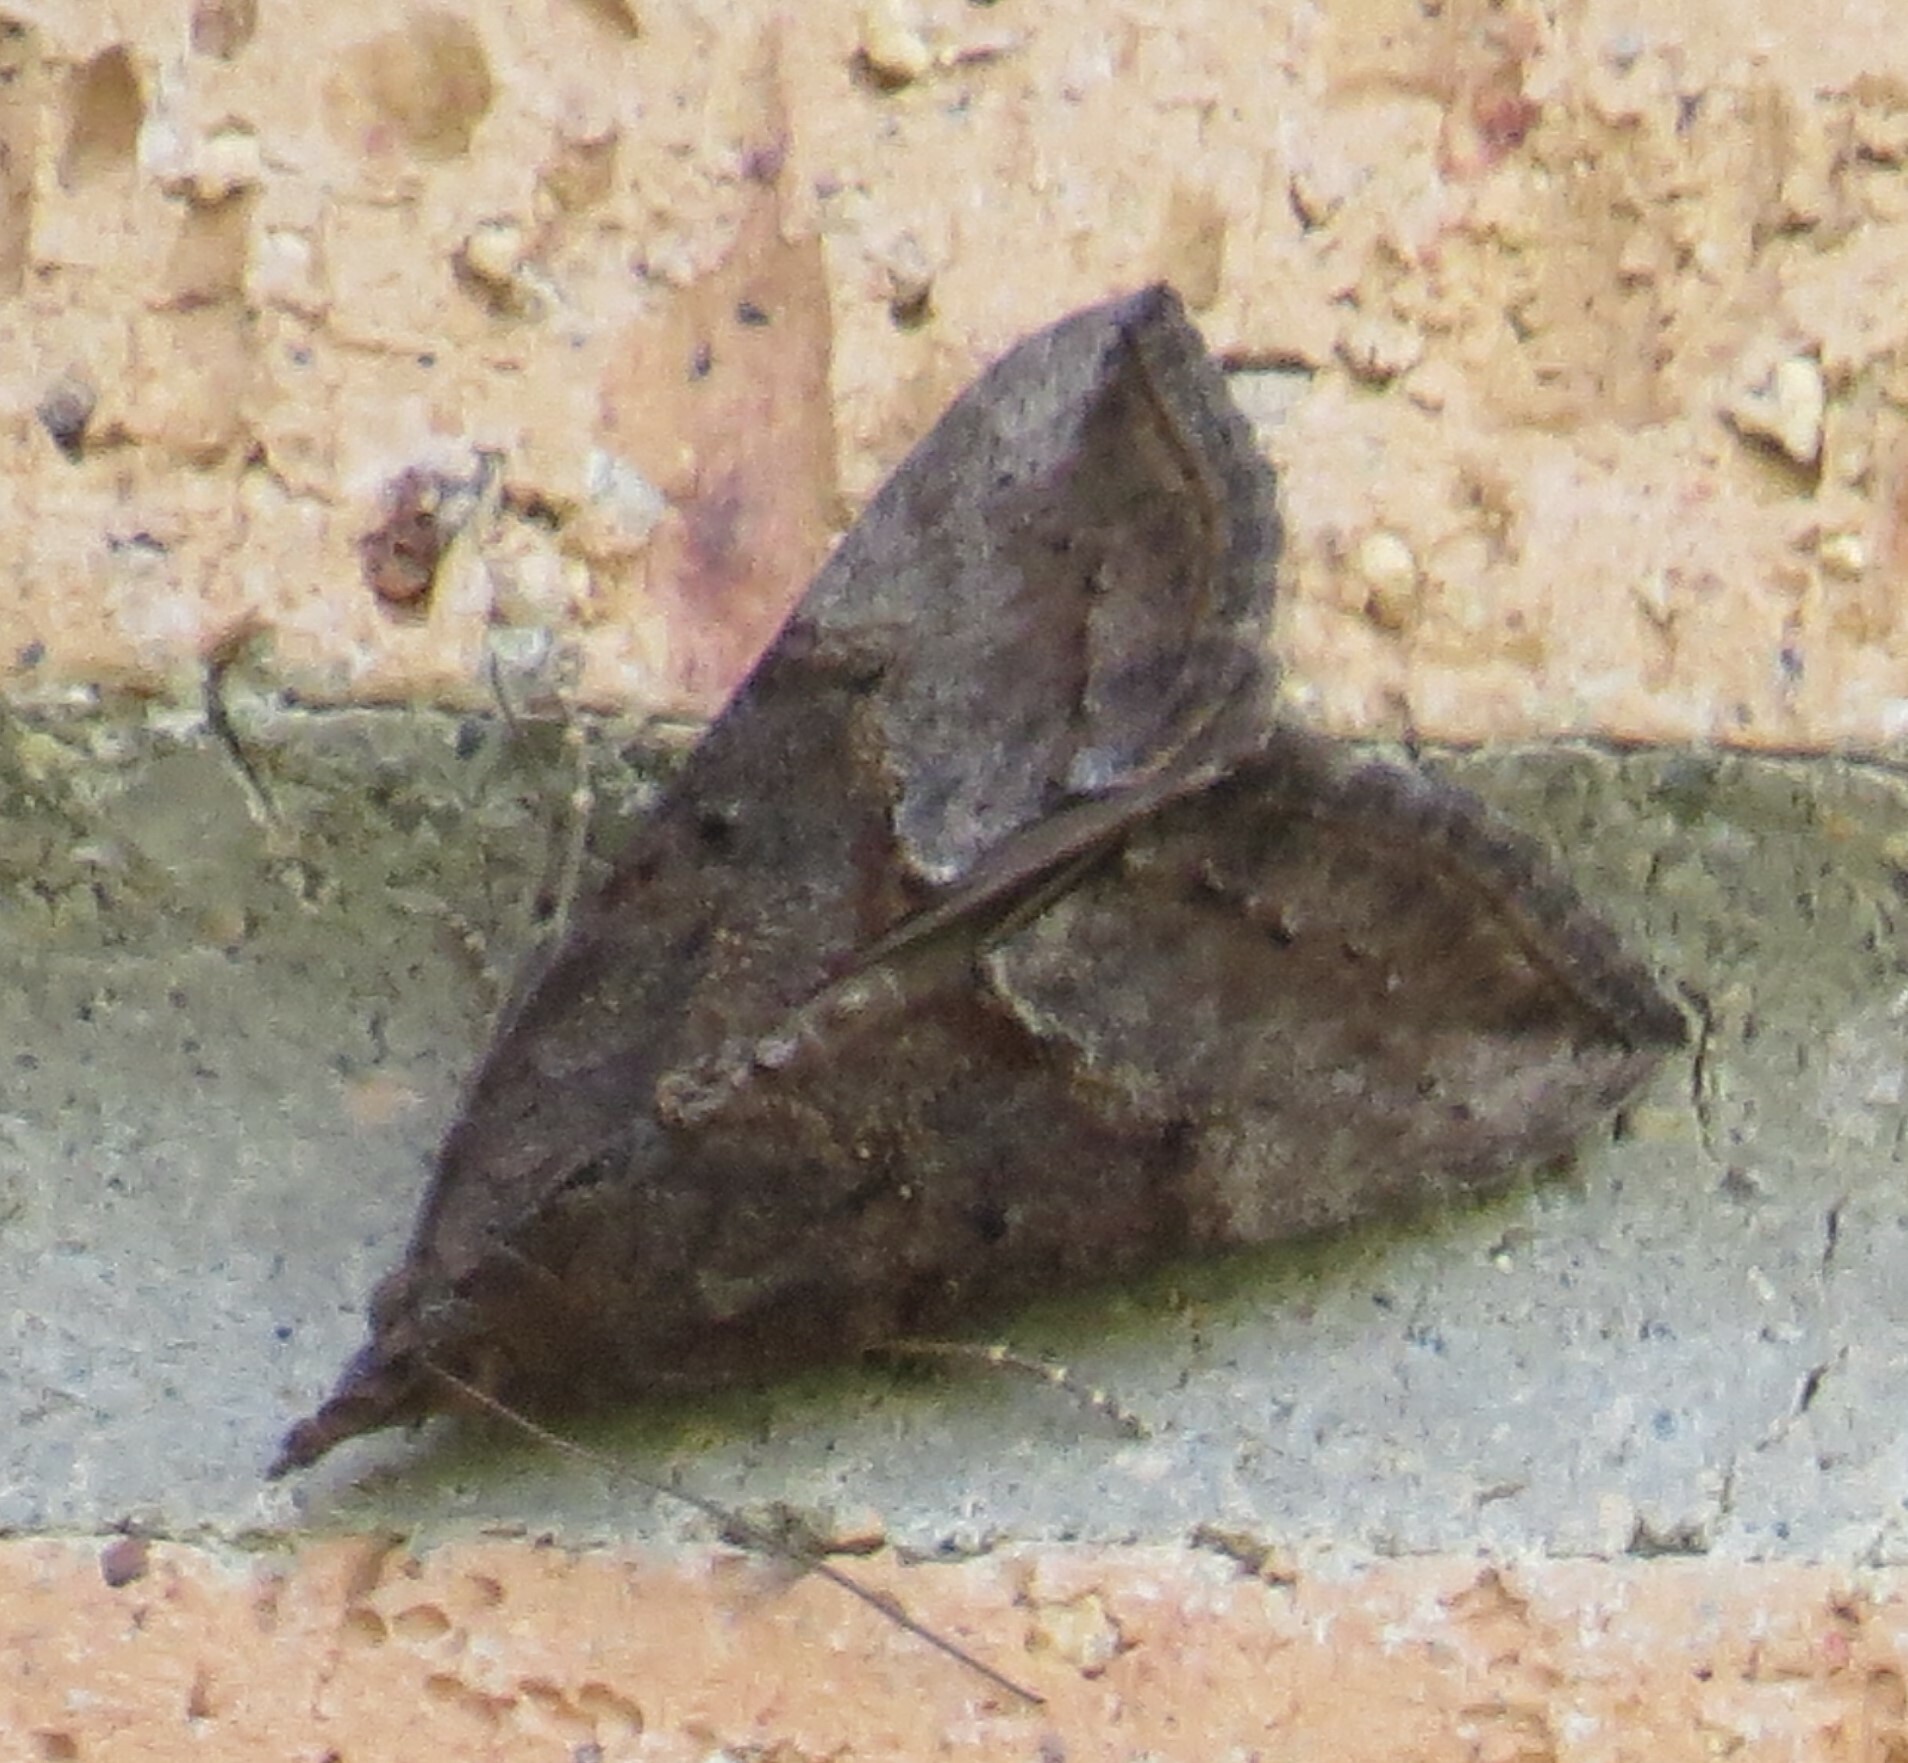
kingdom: Animalia
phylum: Arthropoda
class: Insecta
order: Lepidoptera
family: Erebidae
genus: Hypena
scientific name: Hypena scabra
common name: Green cloverworm
